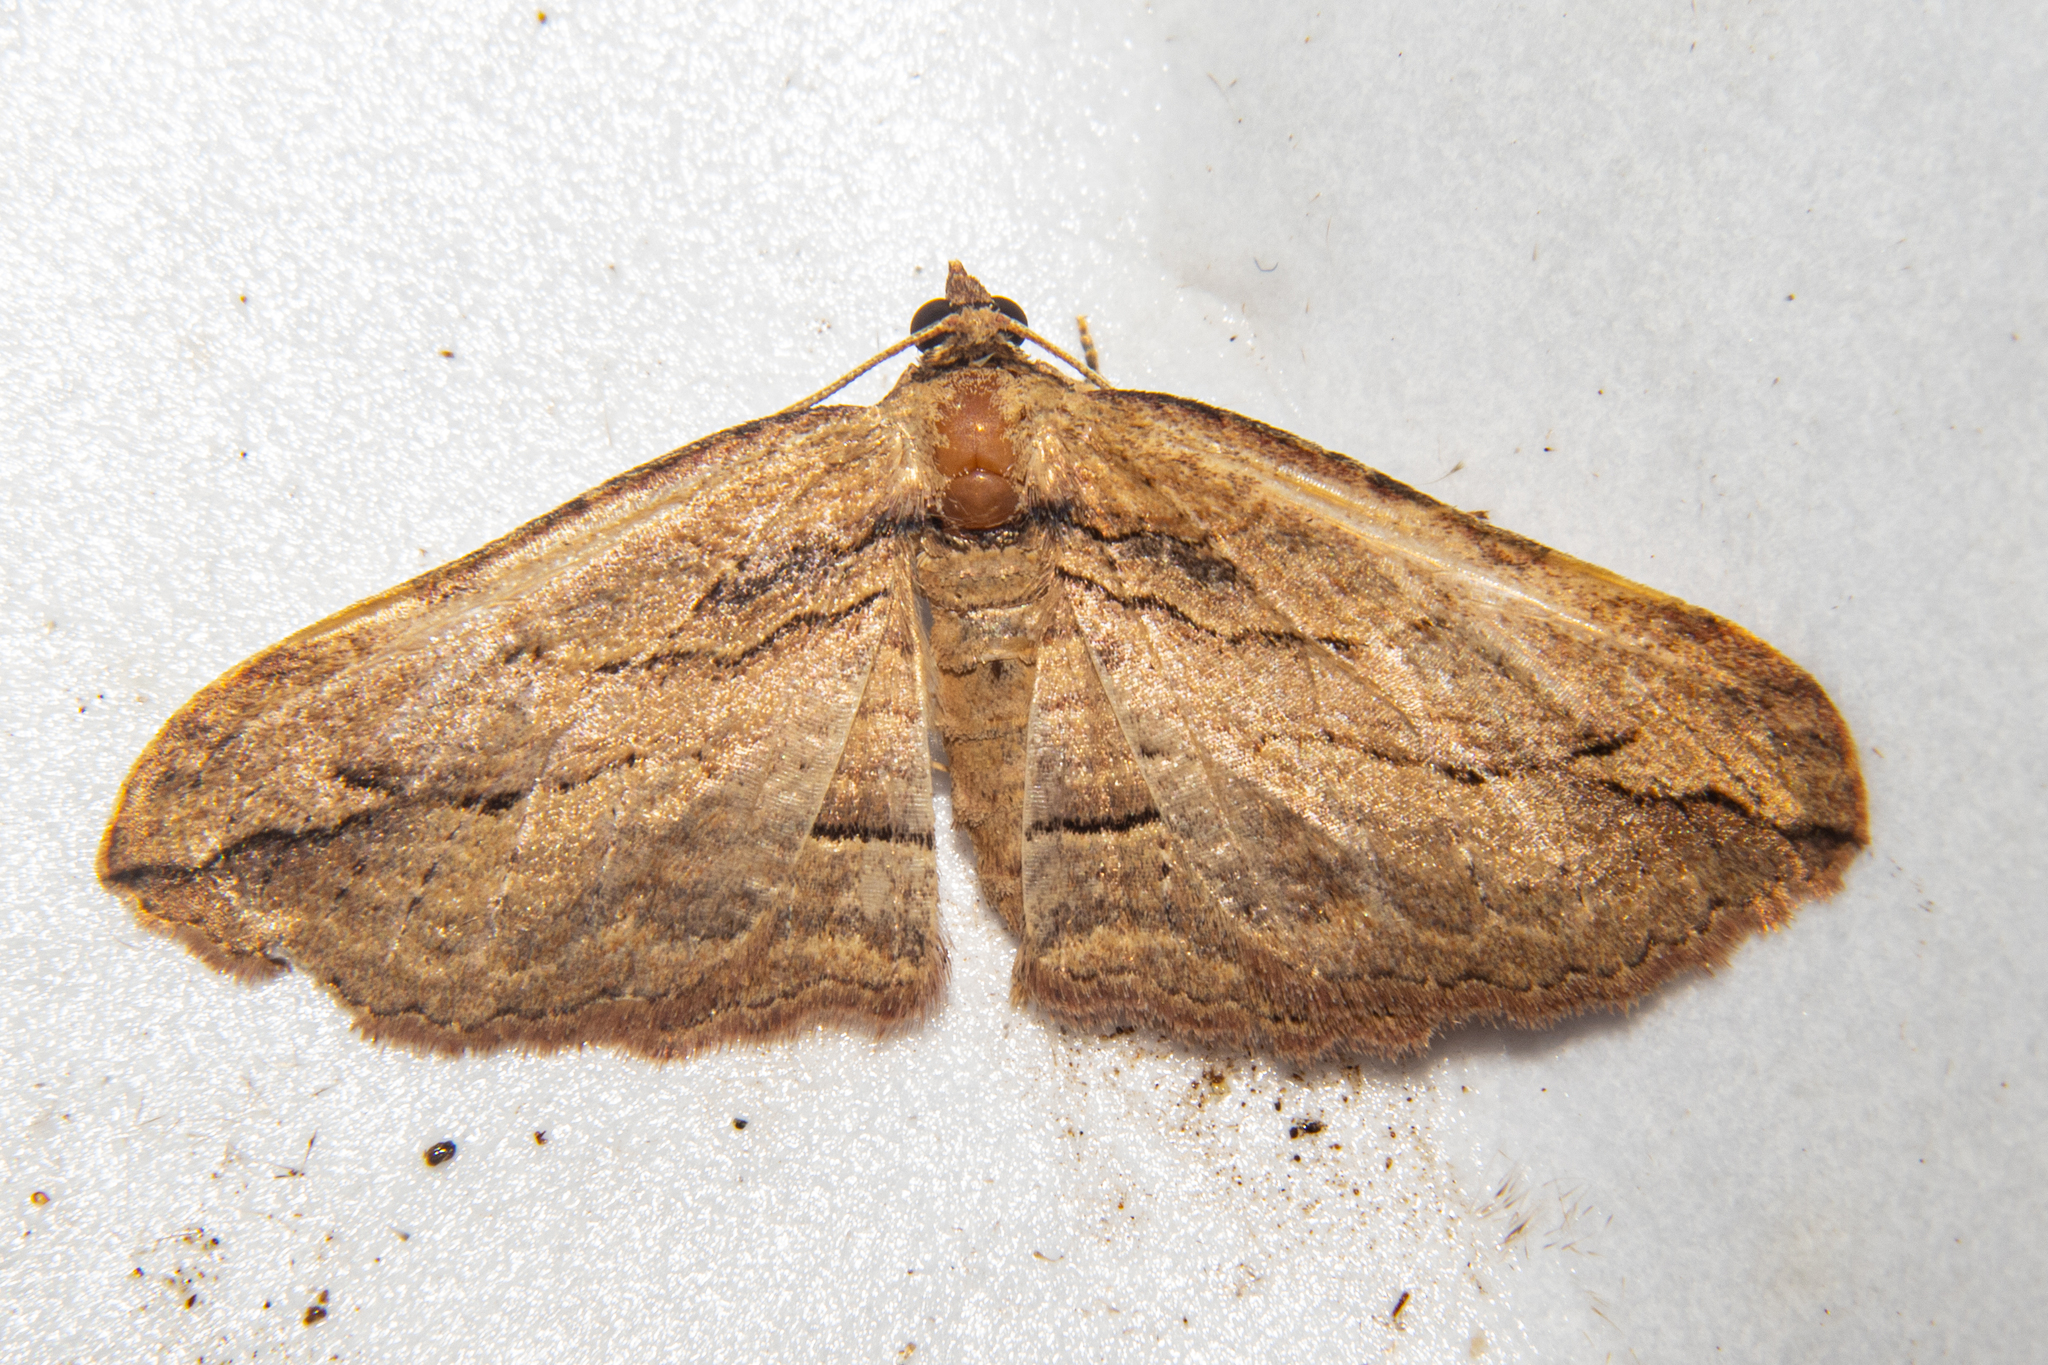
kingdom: Animalia
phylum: Arthropoda
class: Insecta
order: Lepidoptera
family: Geometridae
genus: Austrocidaria
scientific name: Austrocidaria gobiata
